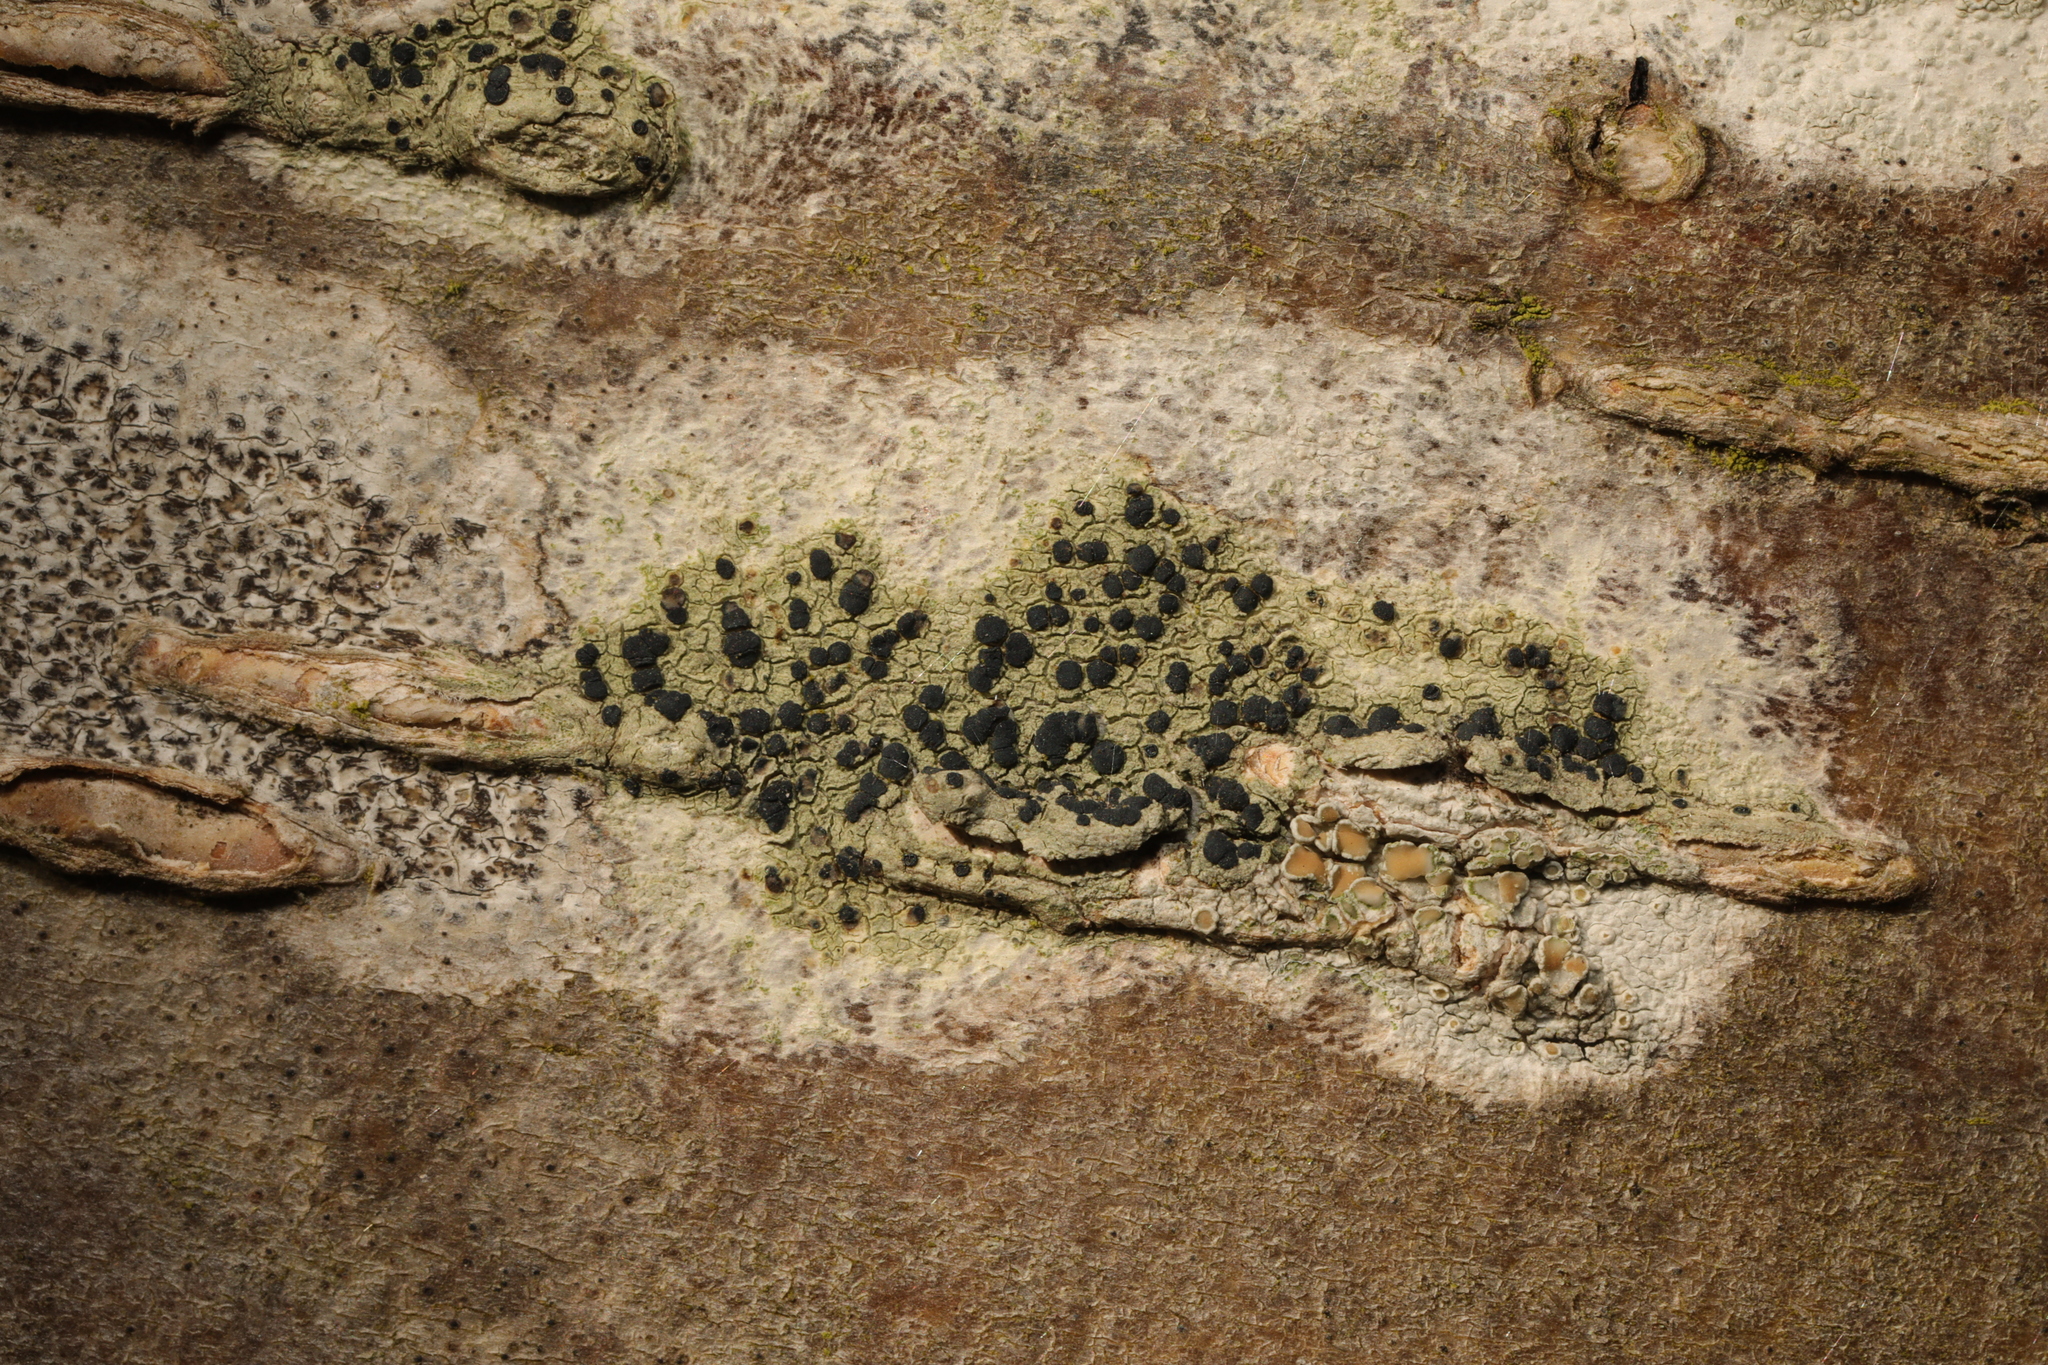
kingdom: Fungi
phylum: Ascomycota
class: Lecanoromycetes
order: Lecanorales
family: Lecanoraceae
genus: Lecidella
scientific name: Lecidella elaeochroma
